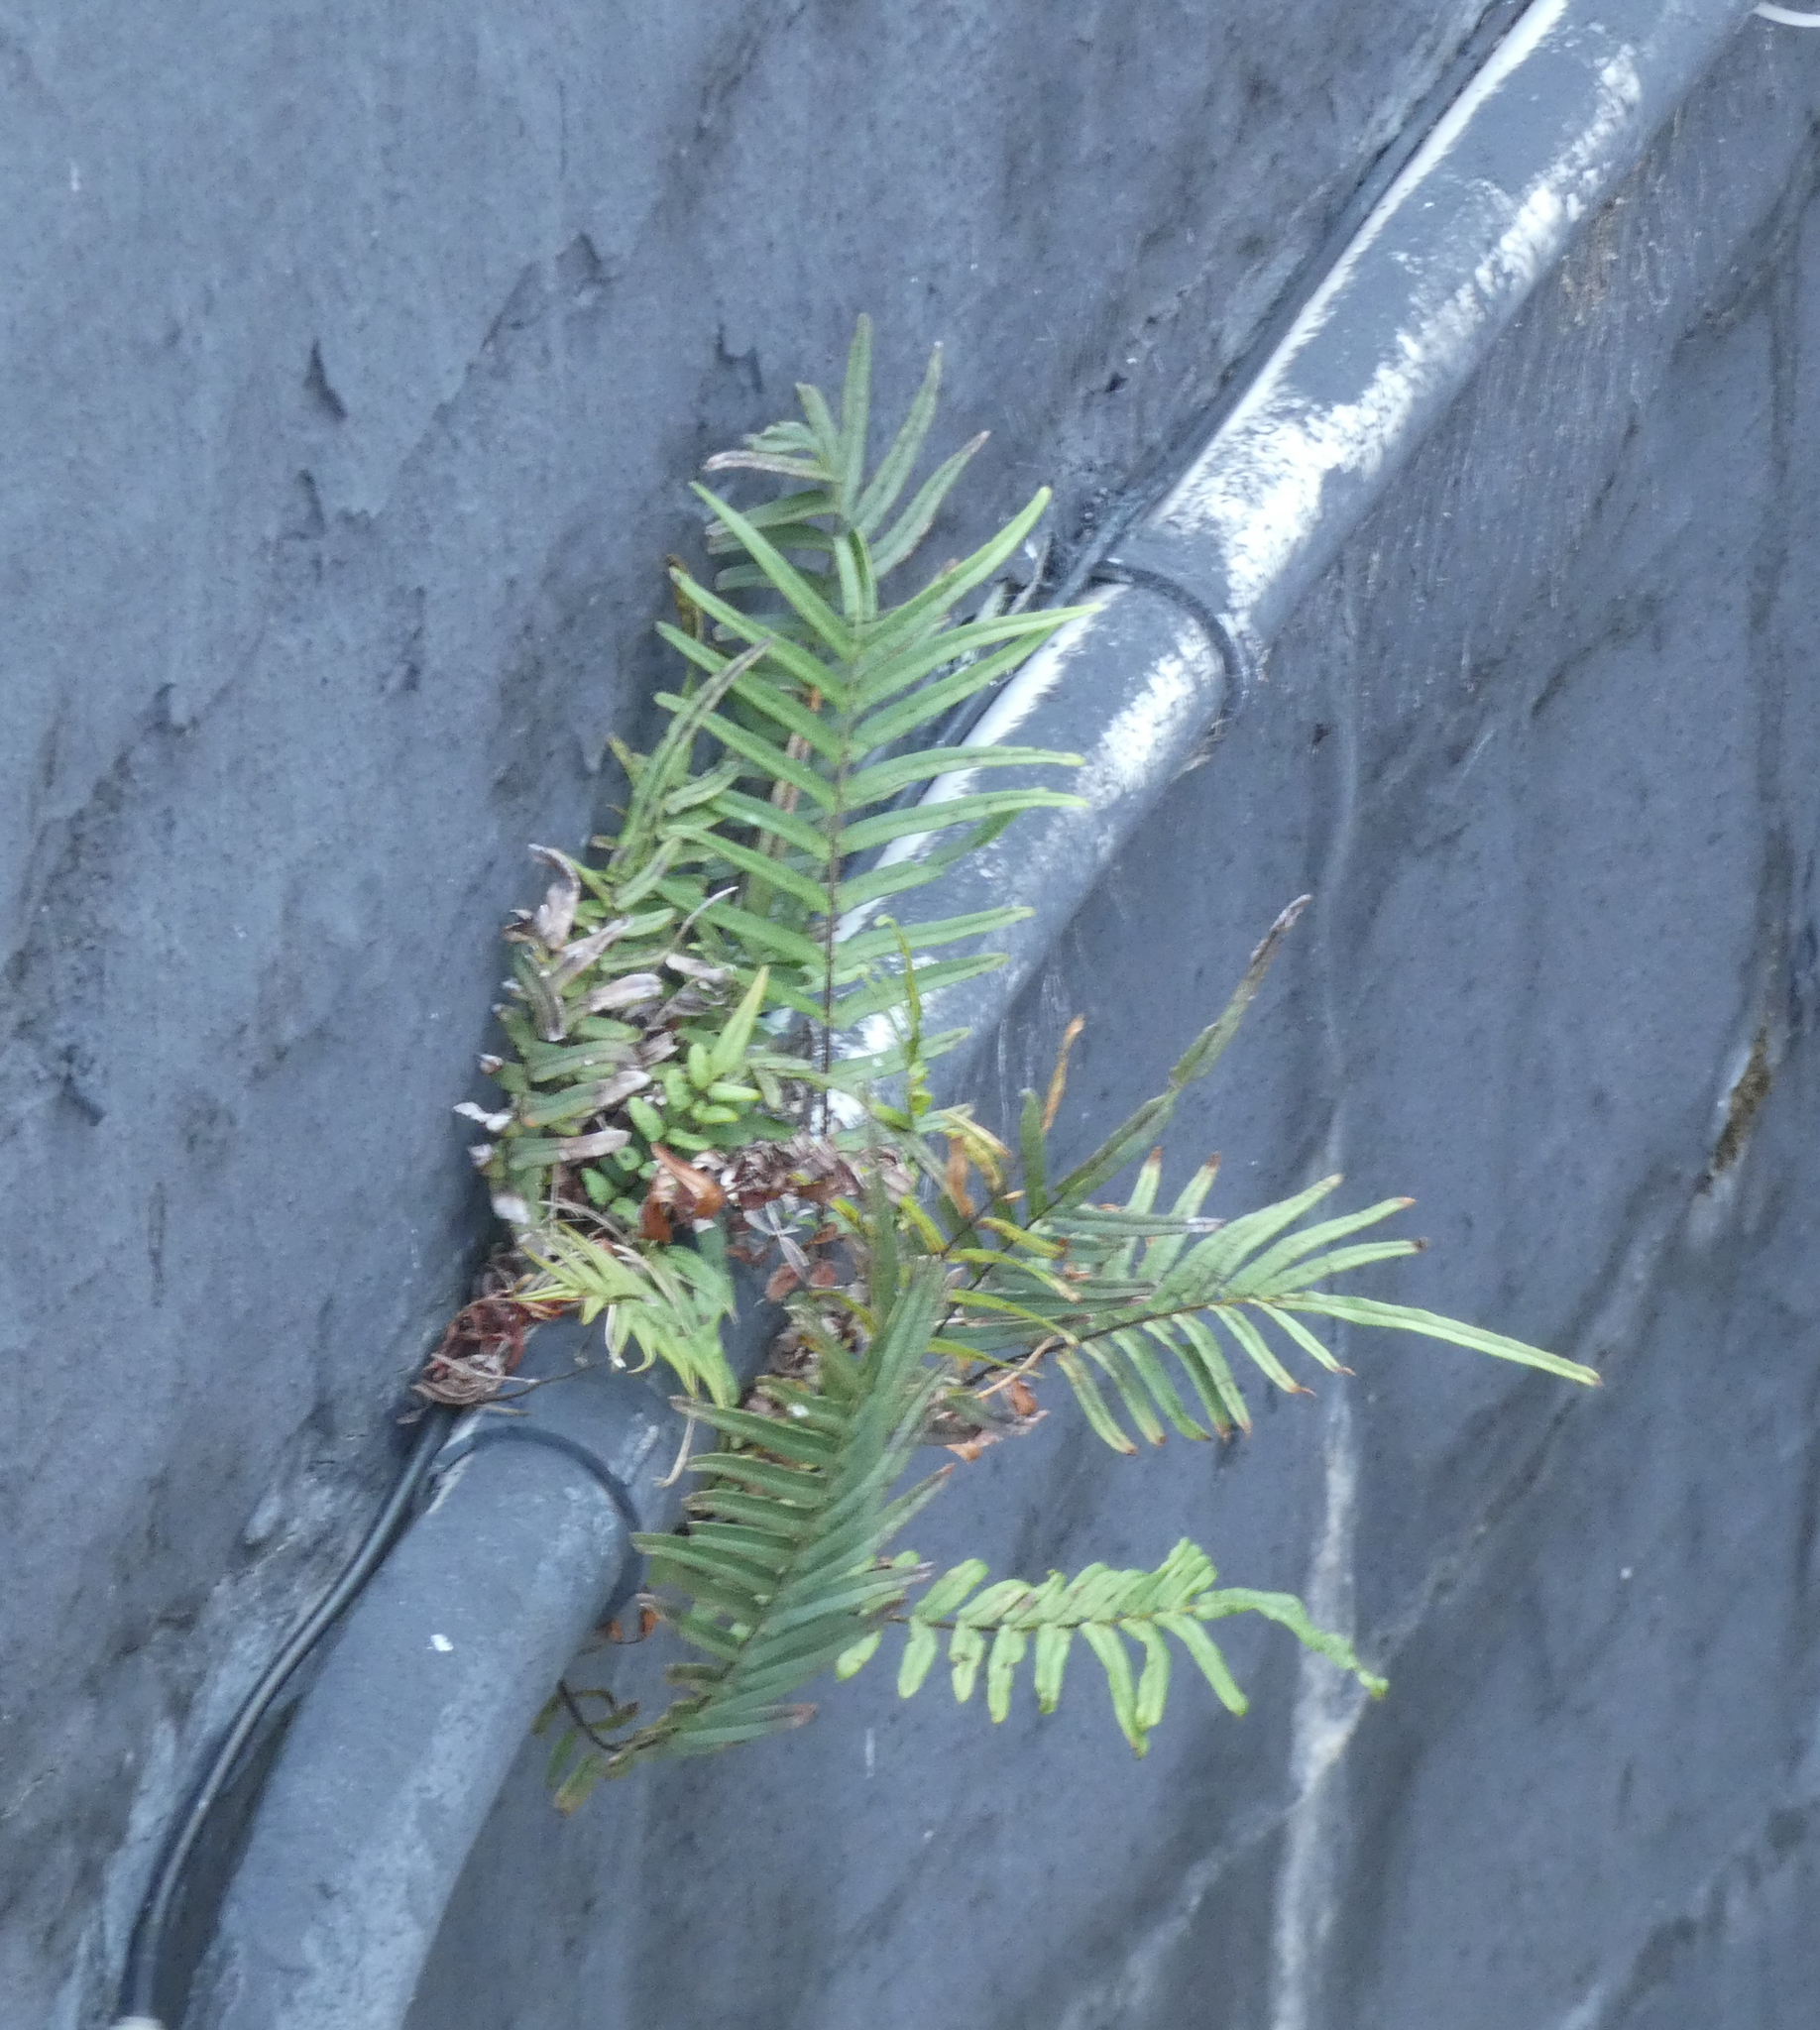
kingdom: Plantae
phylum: Tracheophyta
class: Polypodiopsida
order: Polypodiales
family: Pteridaceae
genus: Pteris
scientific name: Pteris vittata
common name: Ladder brake
